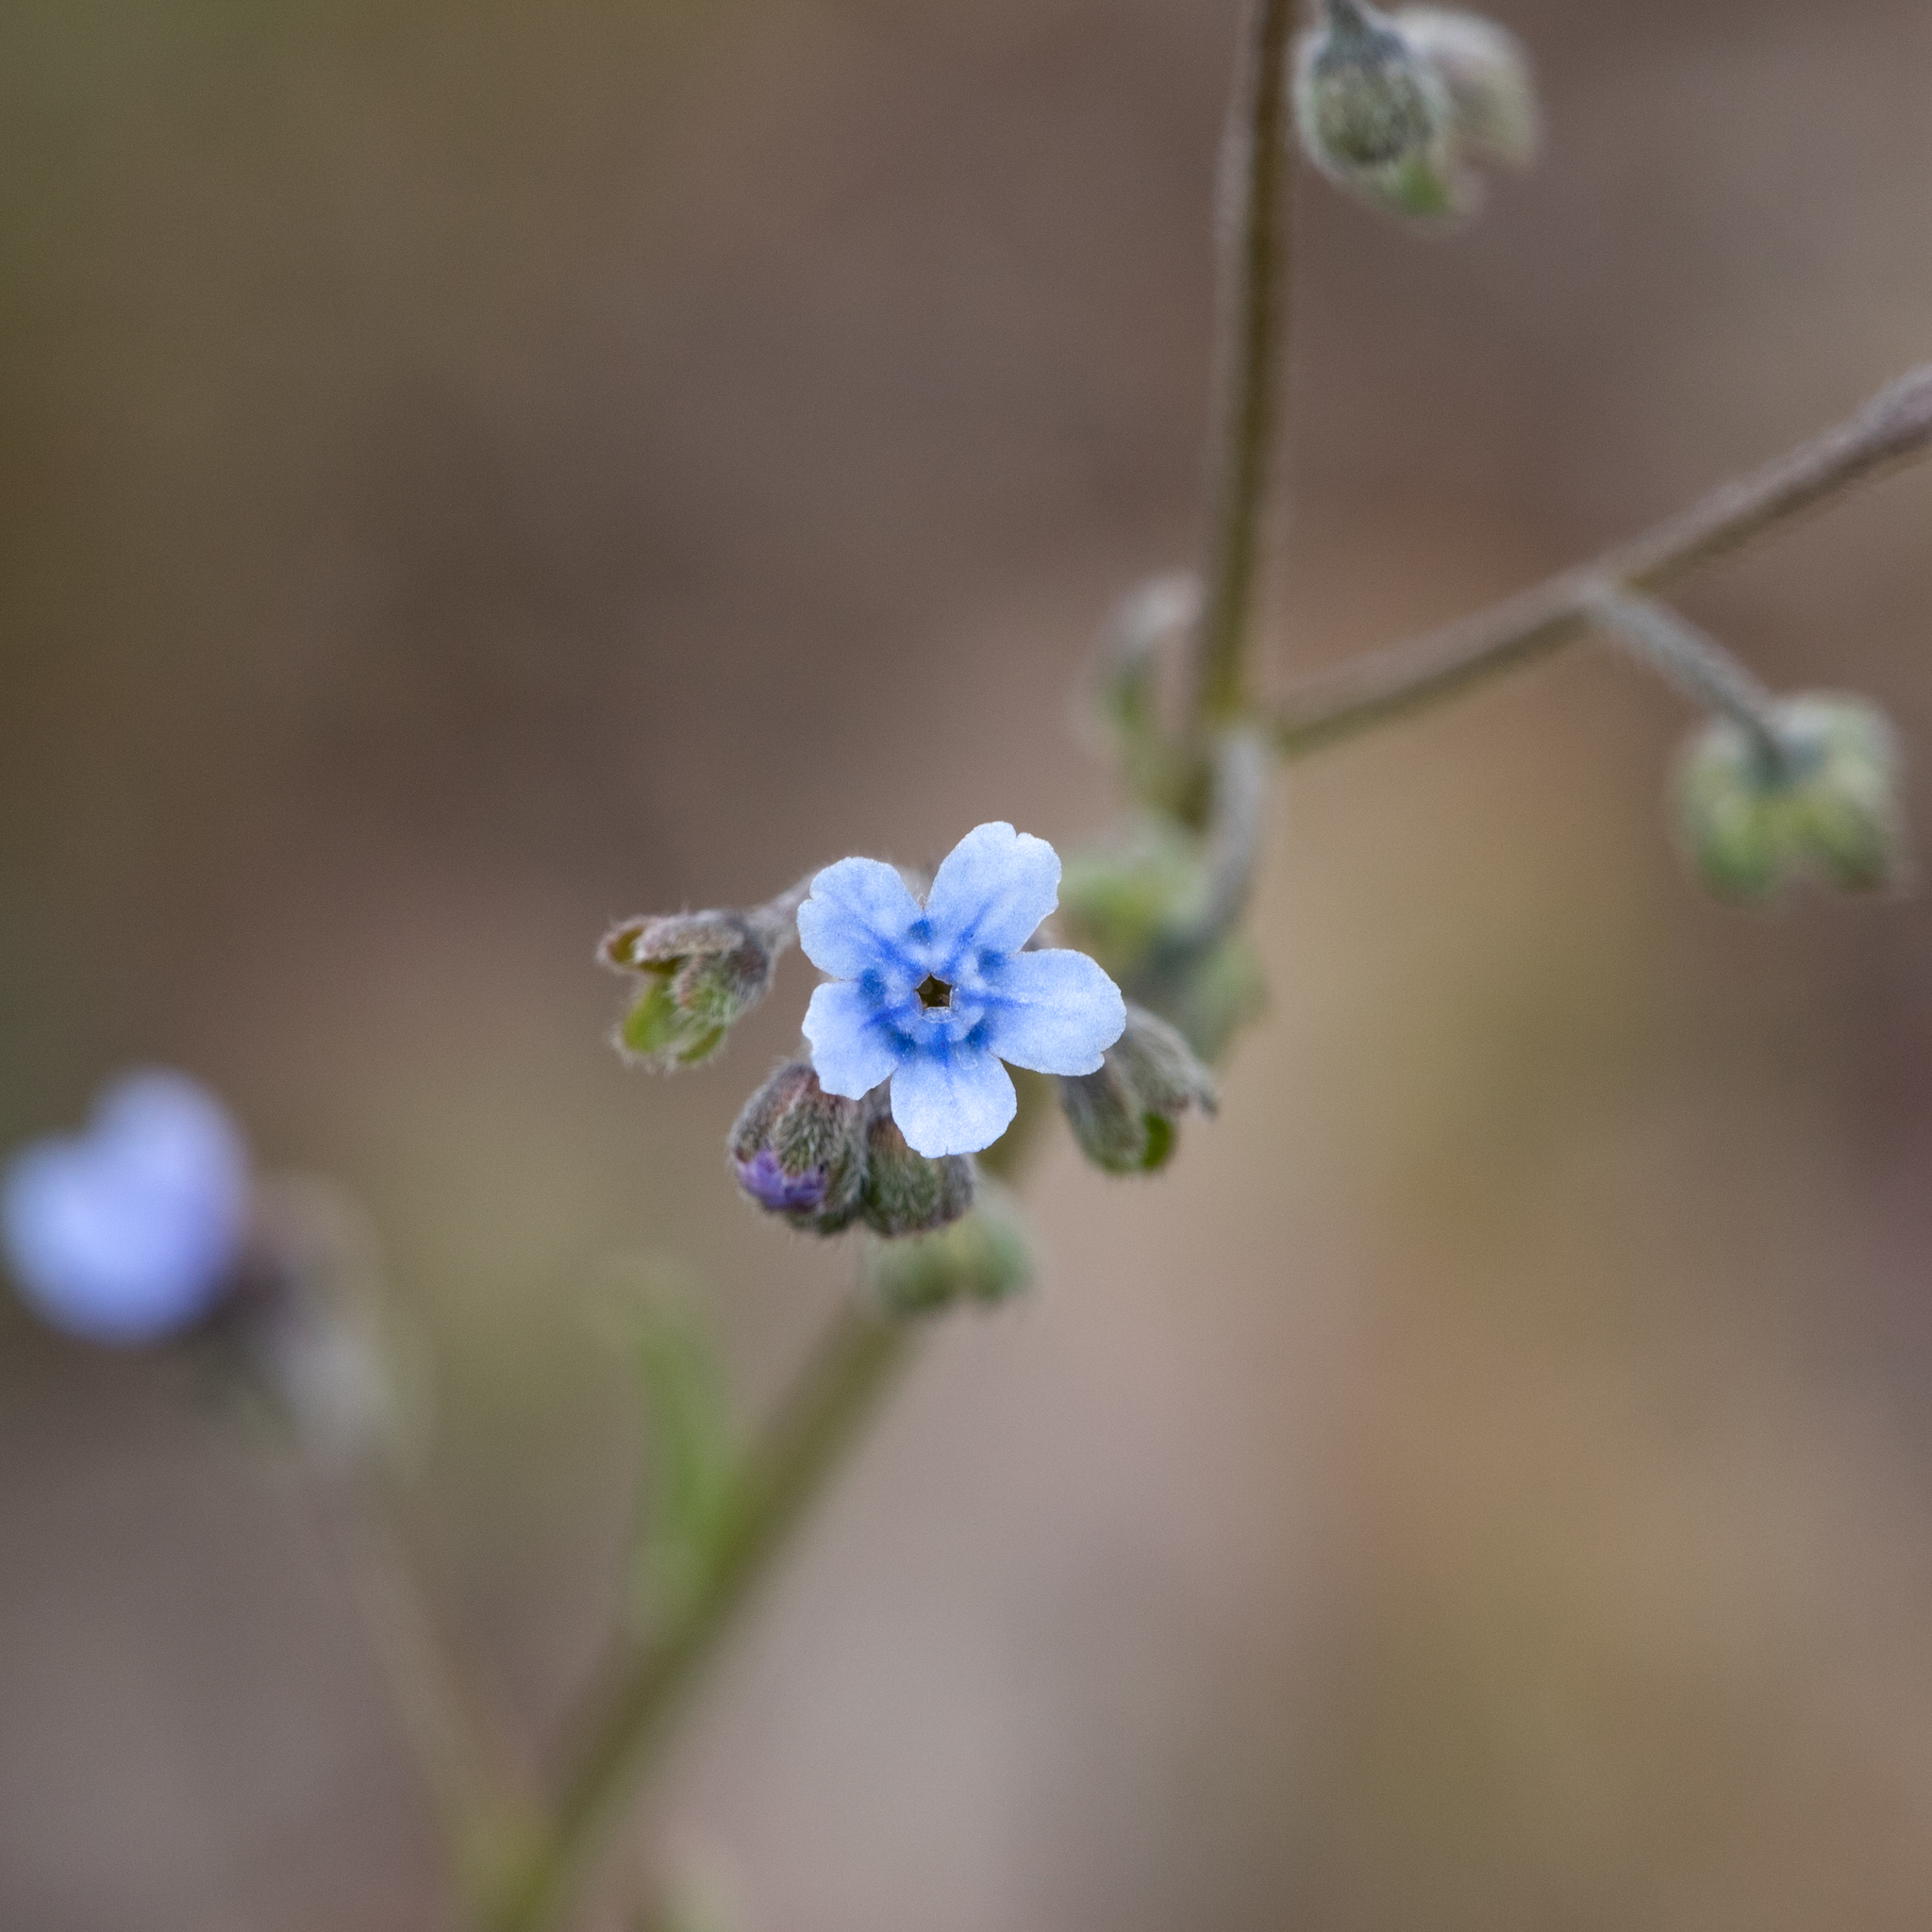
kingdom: Plantae
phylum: Tracheophyta
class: Magnoliopsida
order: Boraginales
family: Boraginaceae
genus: Cynoglossum
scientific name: Cynoglossum australe
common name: Australian hound's-tongue
